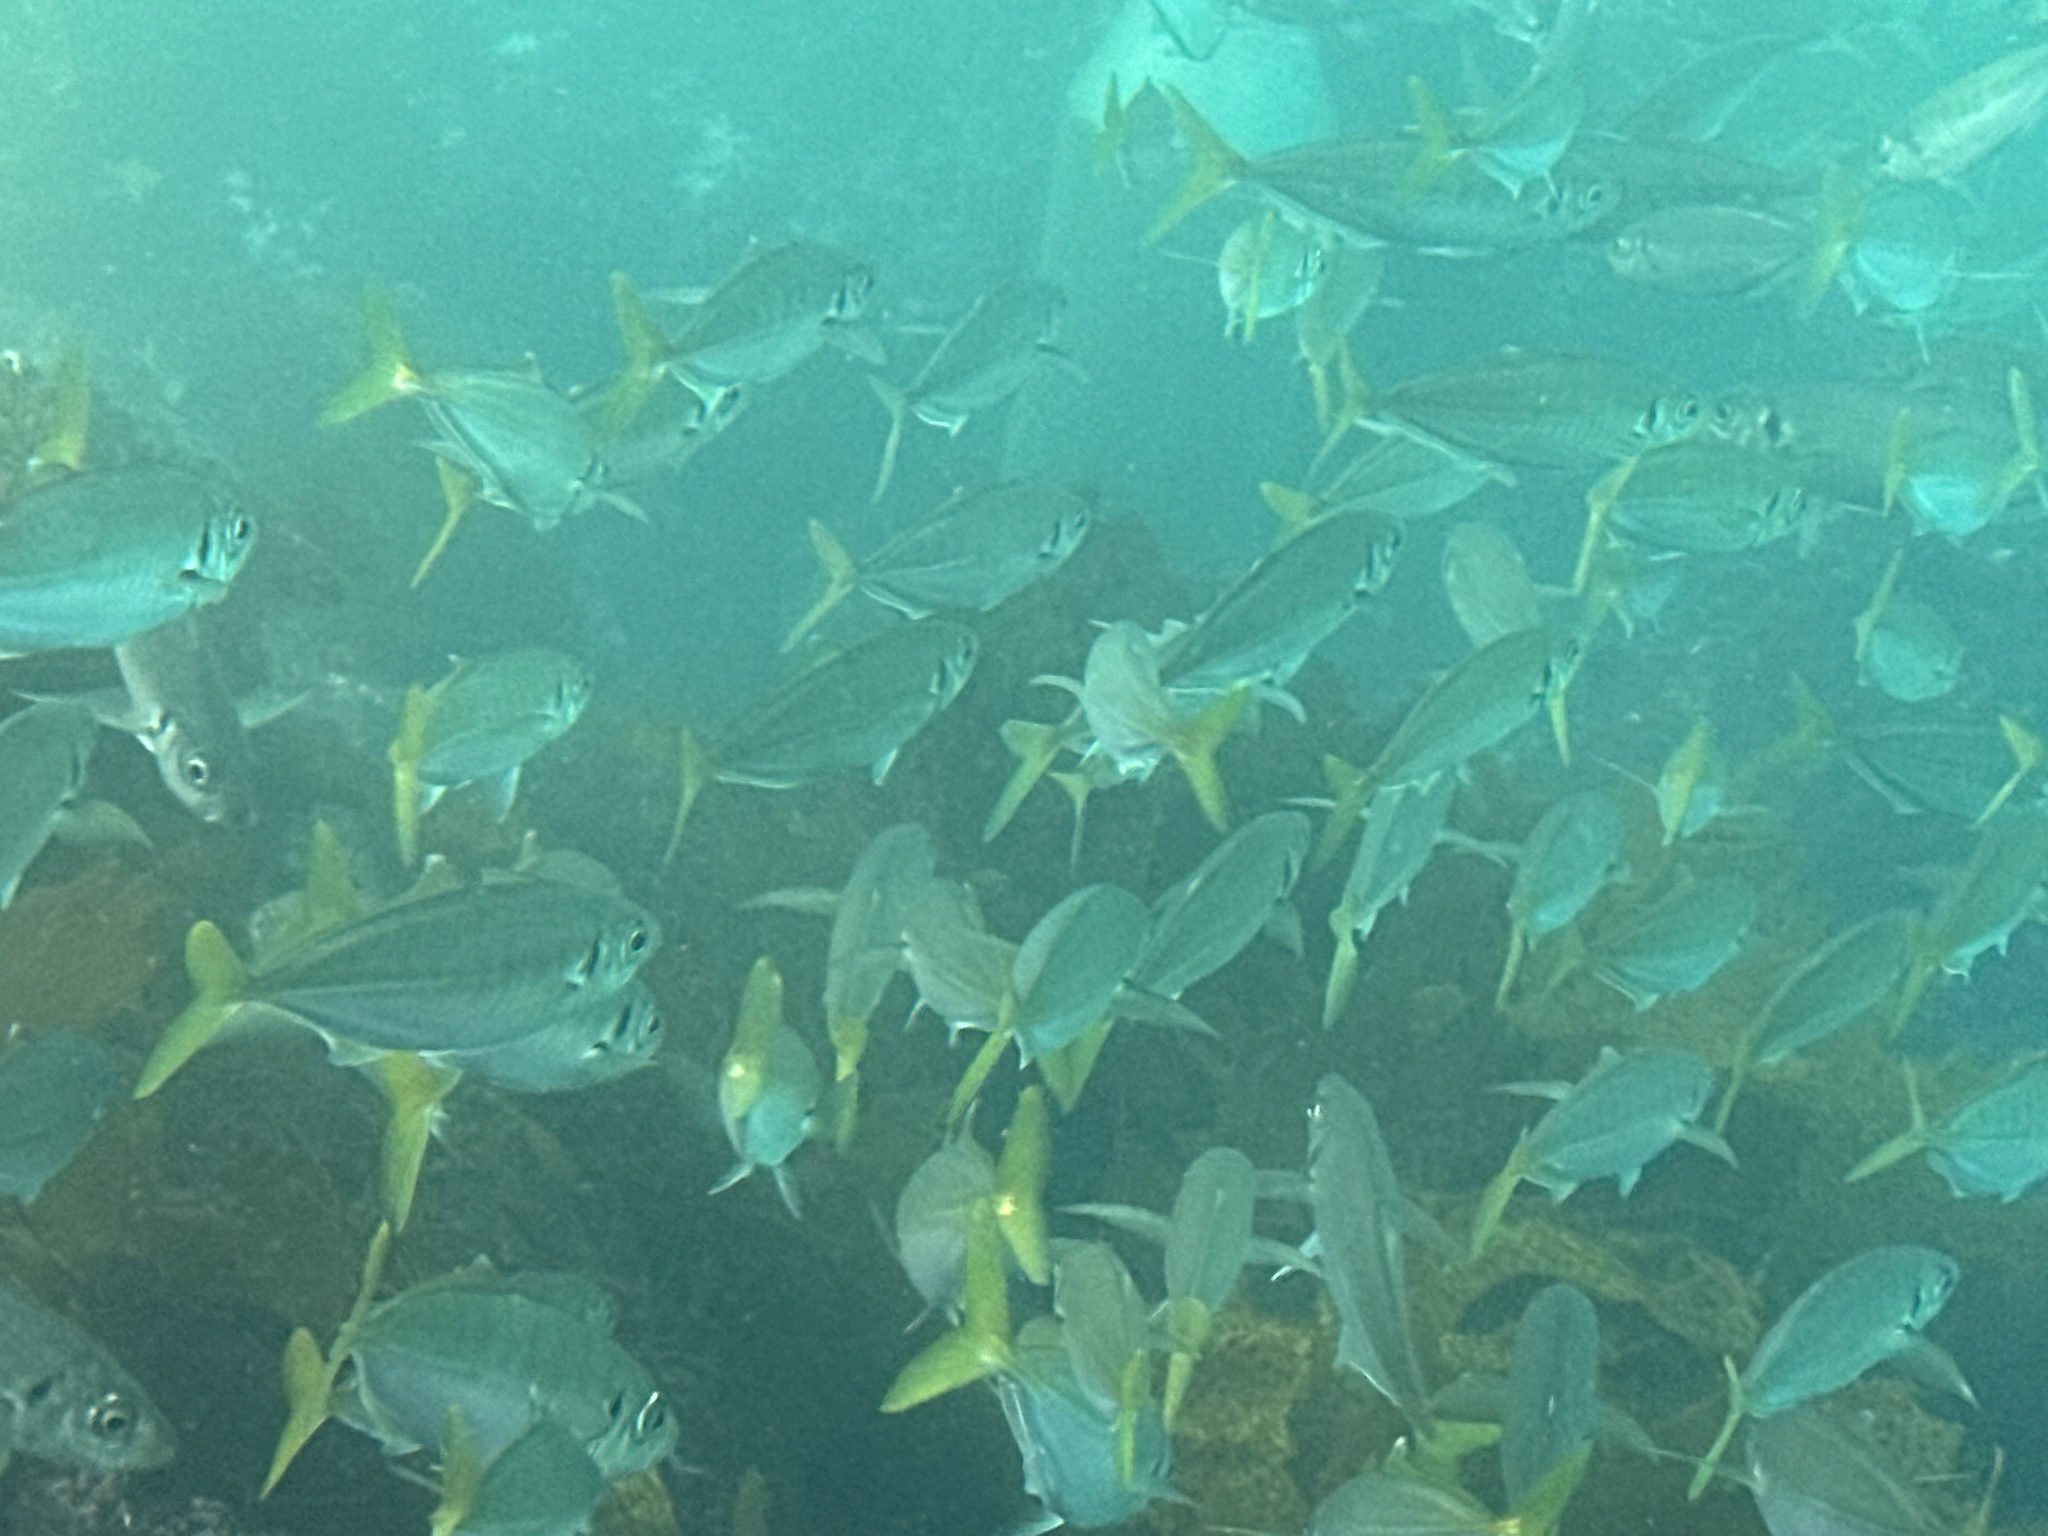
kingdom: Animalia
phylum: Chordata
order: Perciformes
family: Carangidae
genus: Trachurus
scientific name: Trachurus novaezelandiae
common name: Yellowtail horse mackerel
